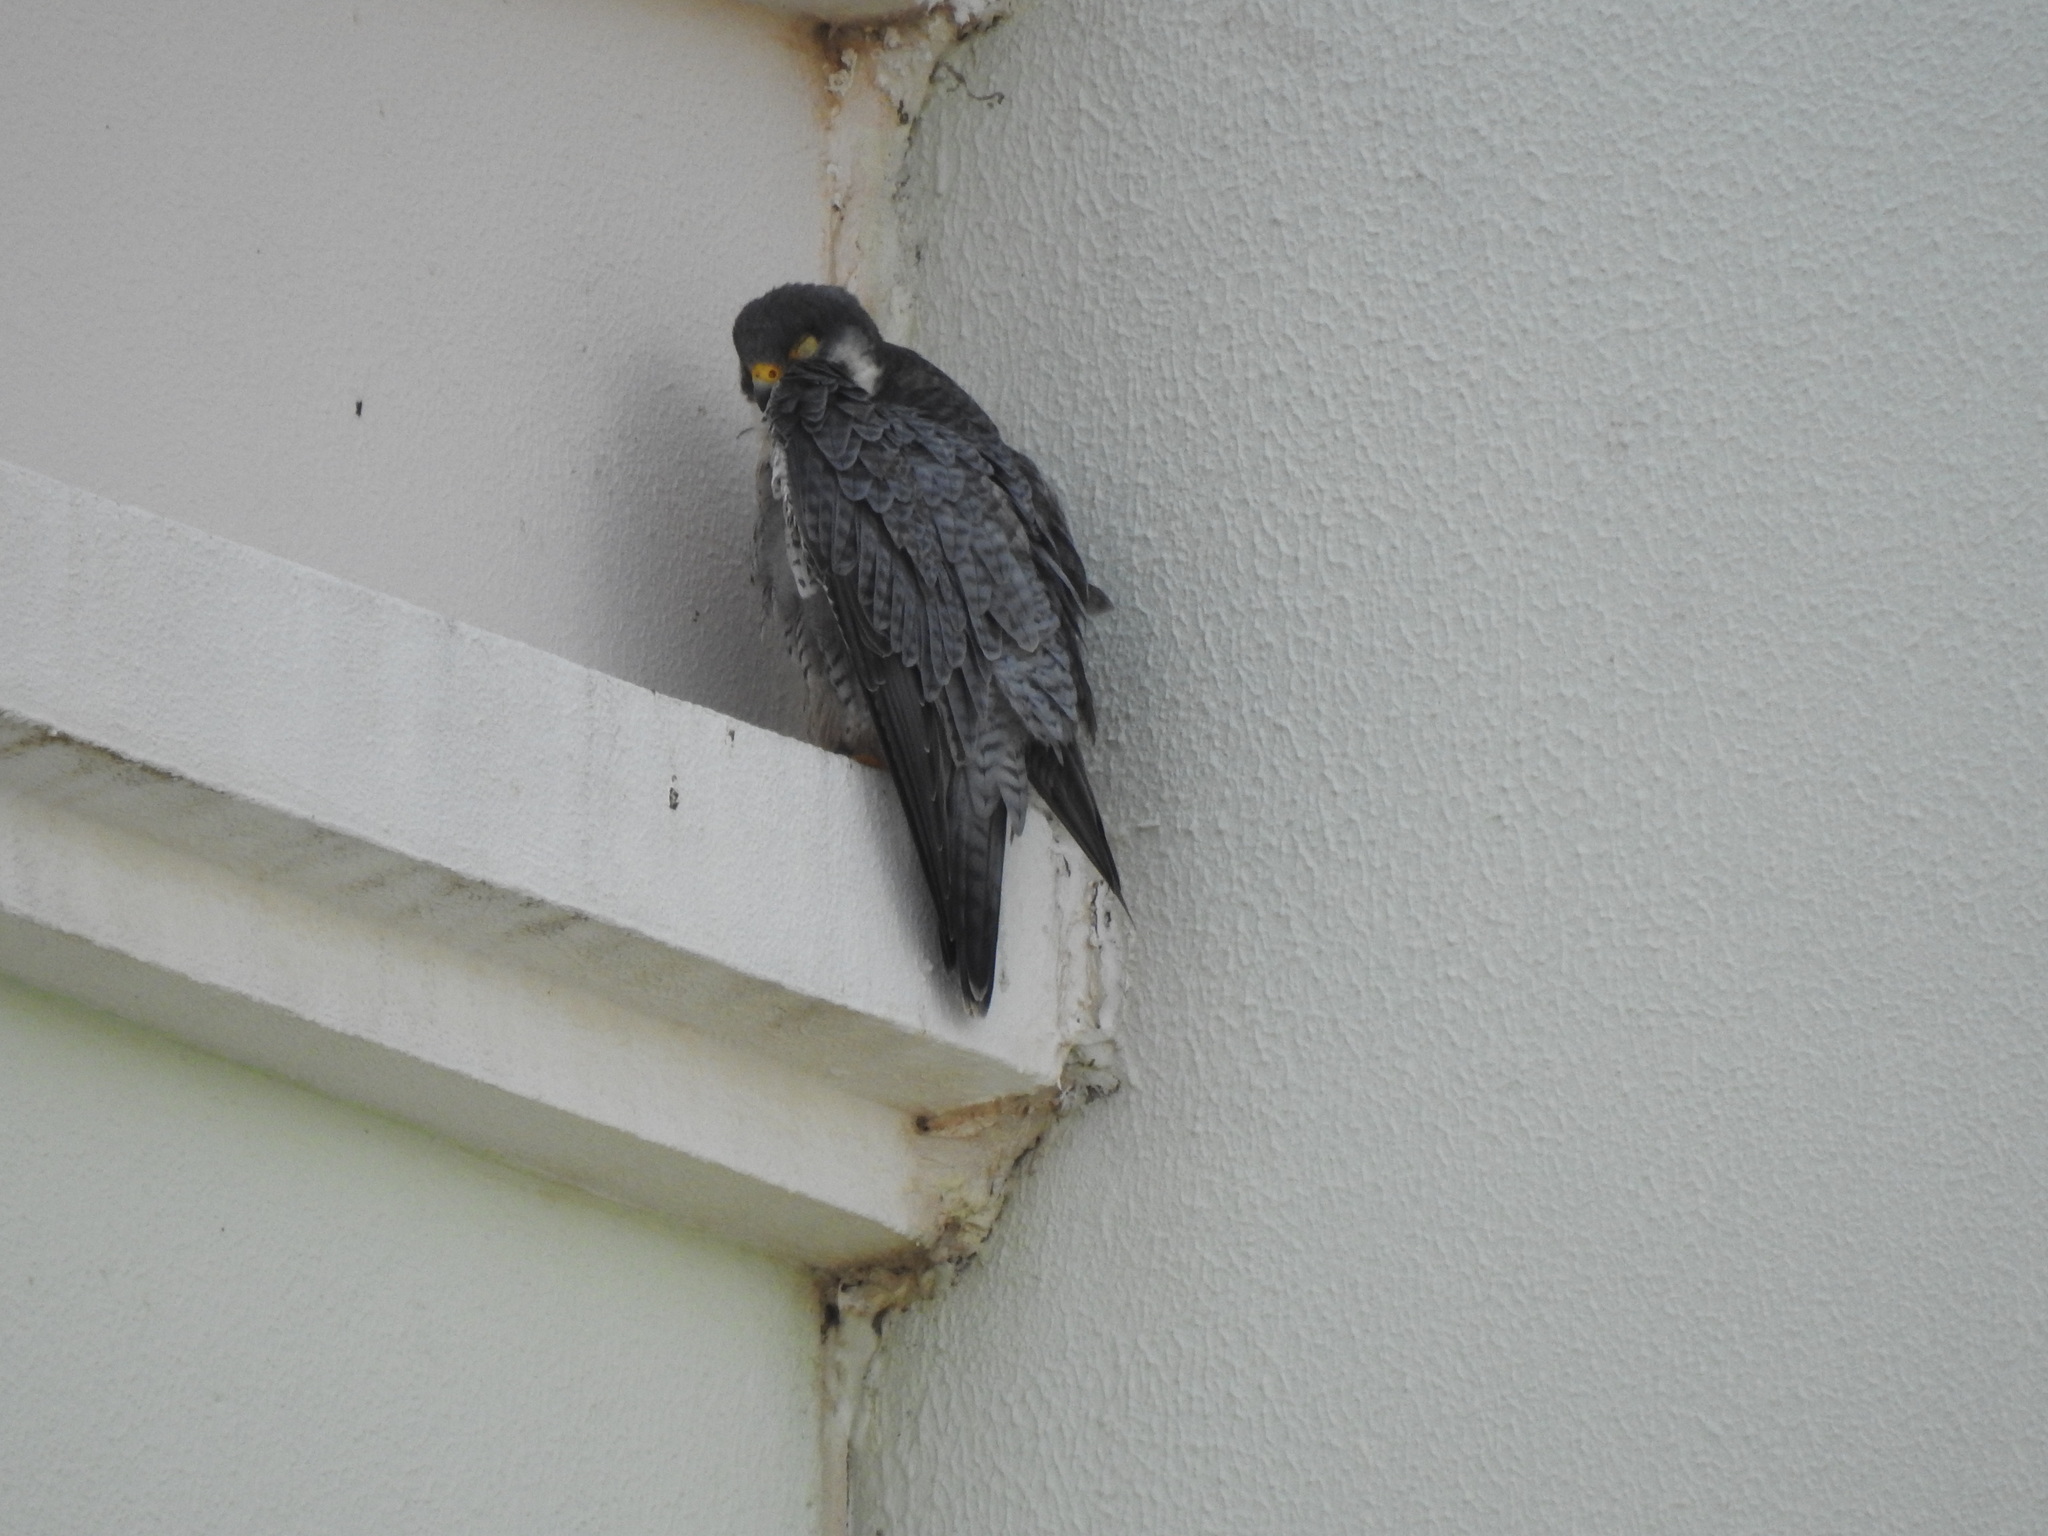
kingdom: Animalia
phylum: Chordata
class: Aves
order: Falconiformes
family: Falconidae
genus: Falco
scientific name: Falco peregrinus
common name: Peregrine falcon
